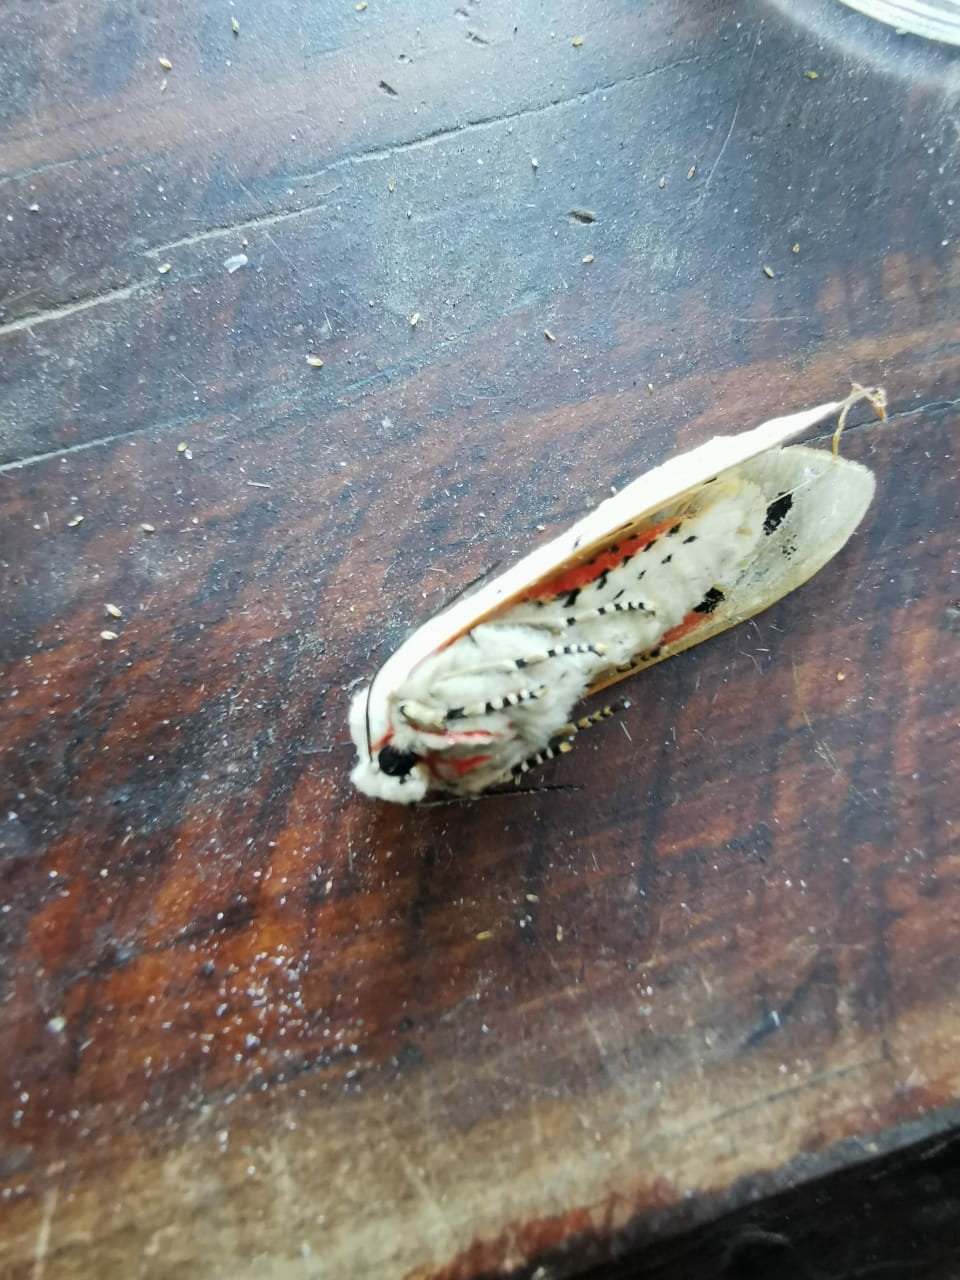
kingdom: Animalia
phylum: Arthropoda
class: Insecta
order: Lepidoptera
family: Erebidae
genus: Rhodogastria
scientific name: Rhodogastria amasis
